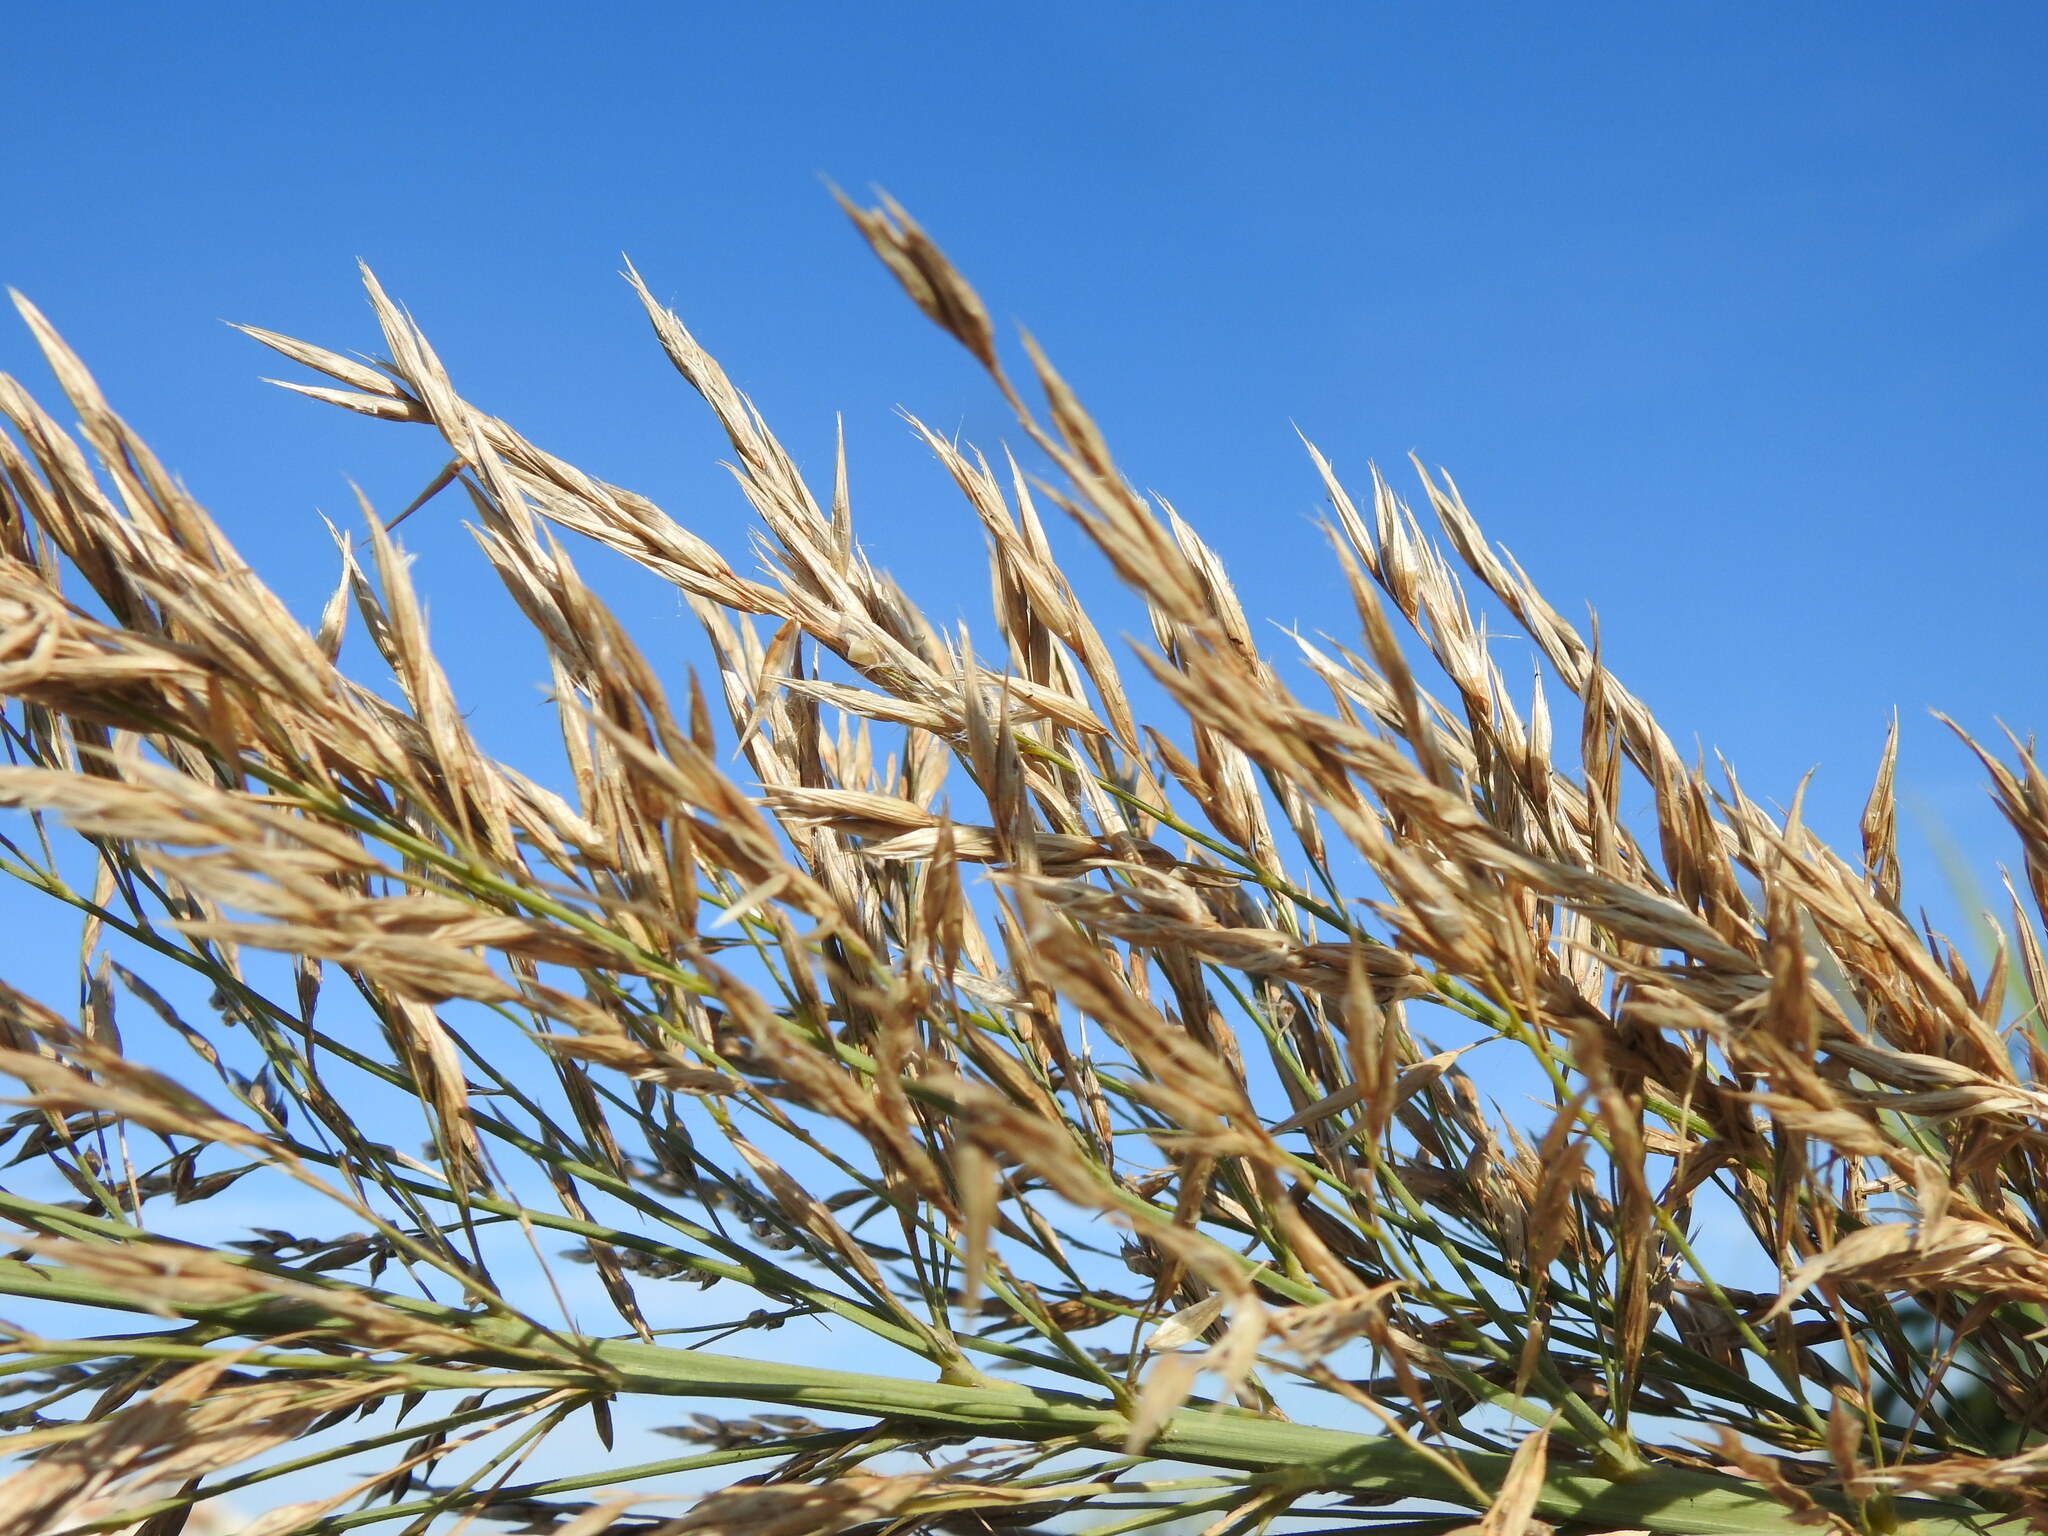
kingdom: Plantae
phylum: Tracheophyta
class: Liliopsida
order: Poales
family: Poaceae
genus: Arundo
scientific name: Arundo donax
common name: Giant reed
